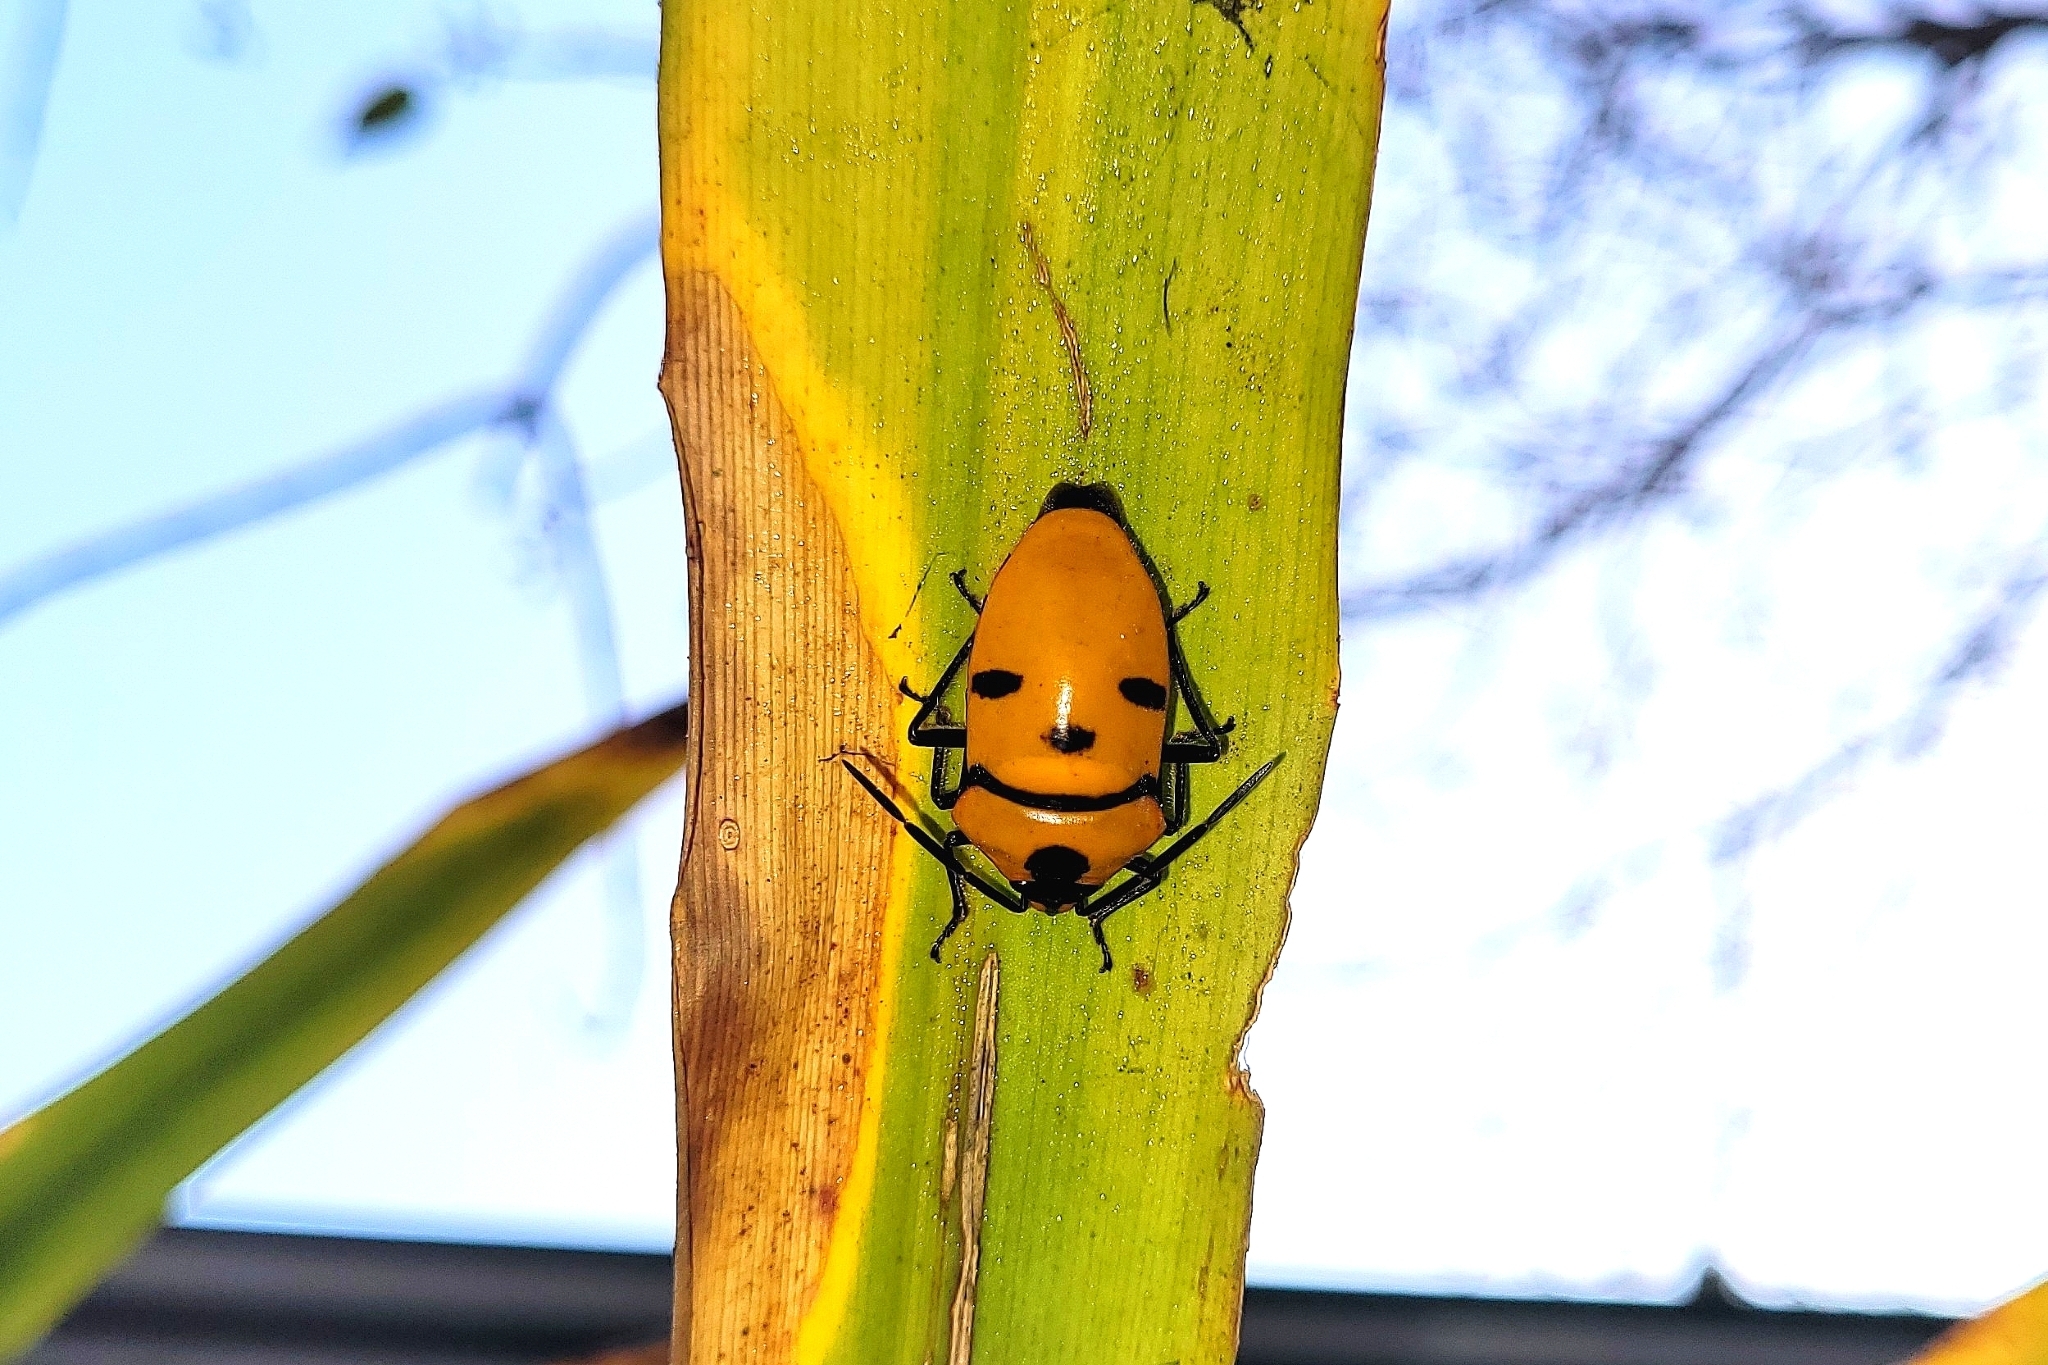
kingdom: Animalia
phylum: Arthropoda
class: Insecta
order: Hemiptera
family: Scutelleridae
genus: Eucorysses
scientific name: Eucorysses grandis
